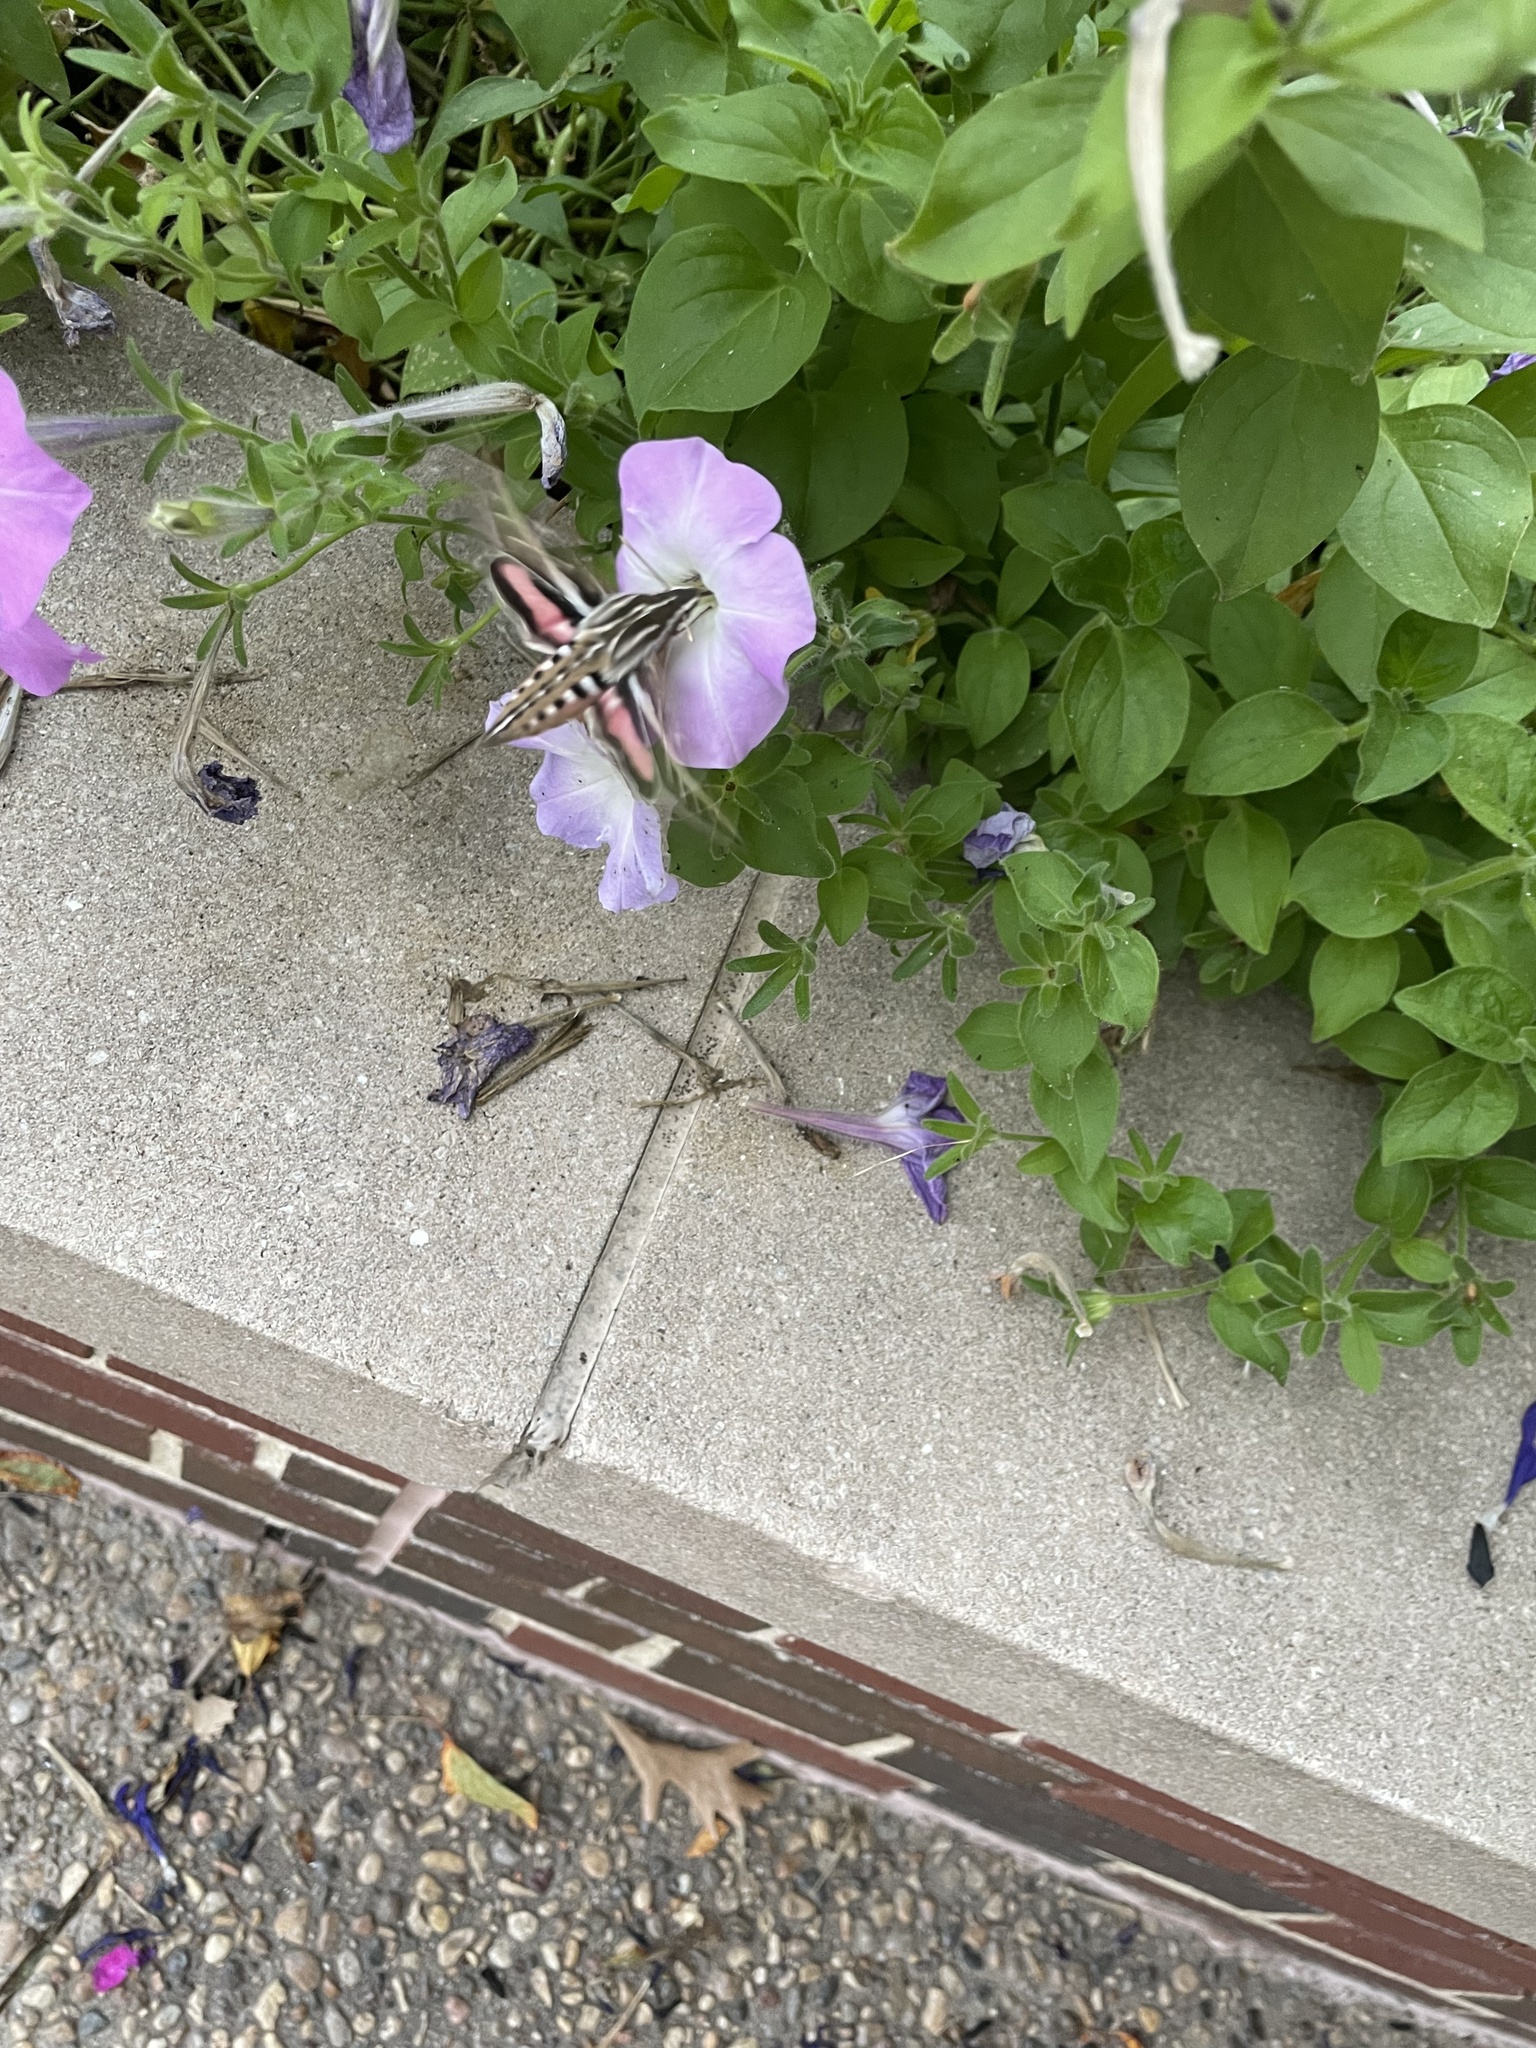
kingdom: Animalia
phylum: Arthropoda
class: Insecta
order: Lepidoptera
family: Sphingidae
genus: Hyles
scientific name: Hyles lineata
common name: White-lined sphinx
